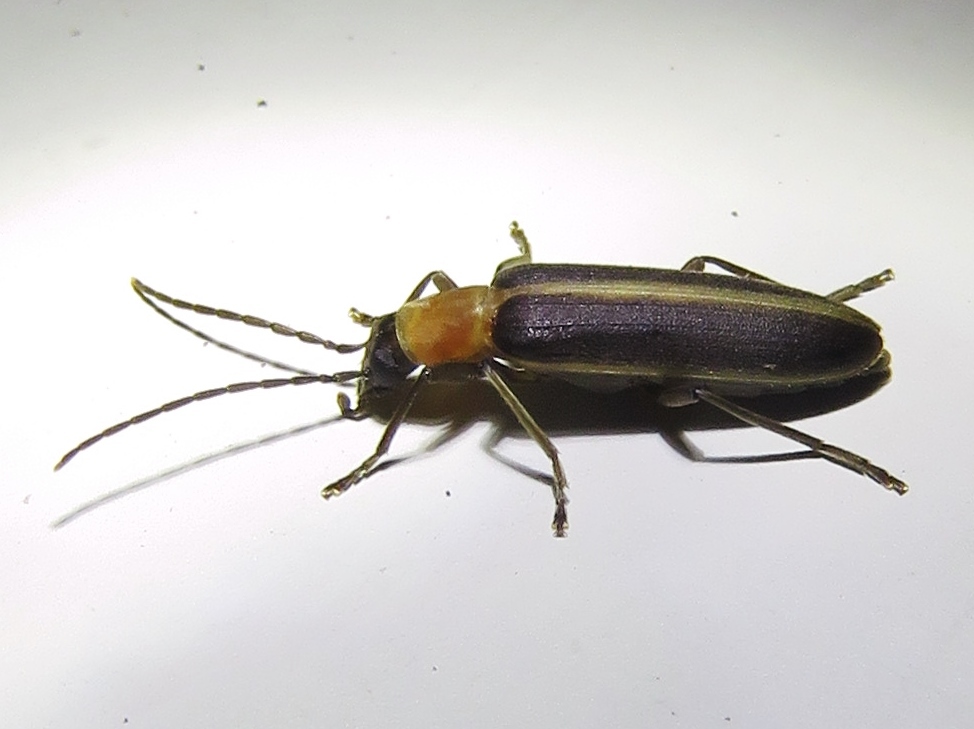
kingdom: Animalia
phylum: Arthropoda
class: Insecta
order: Coleoptera
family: Oedemeridae
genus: Oxycopis
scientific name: Oxycopis mimetica
